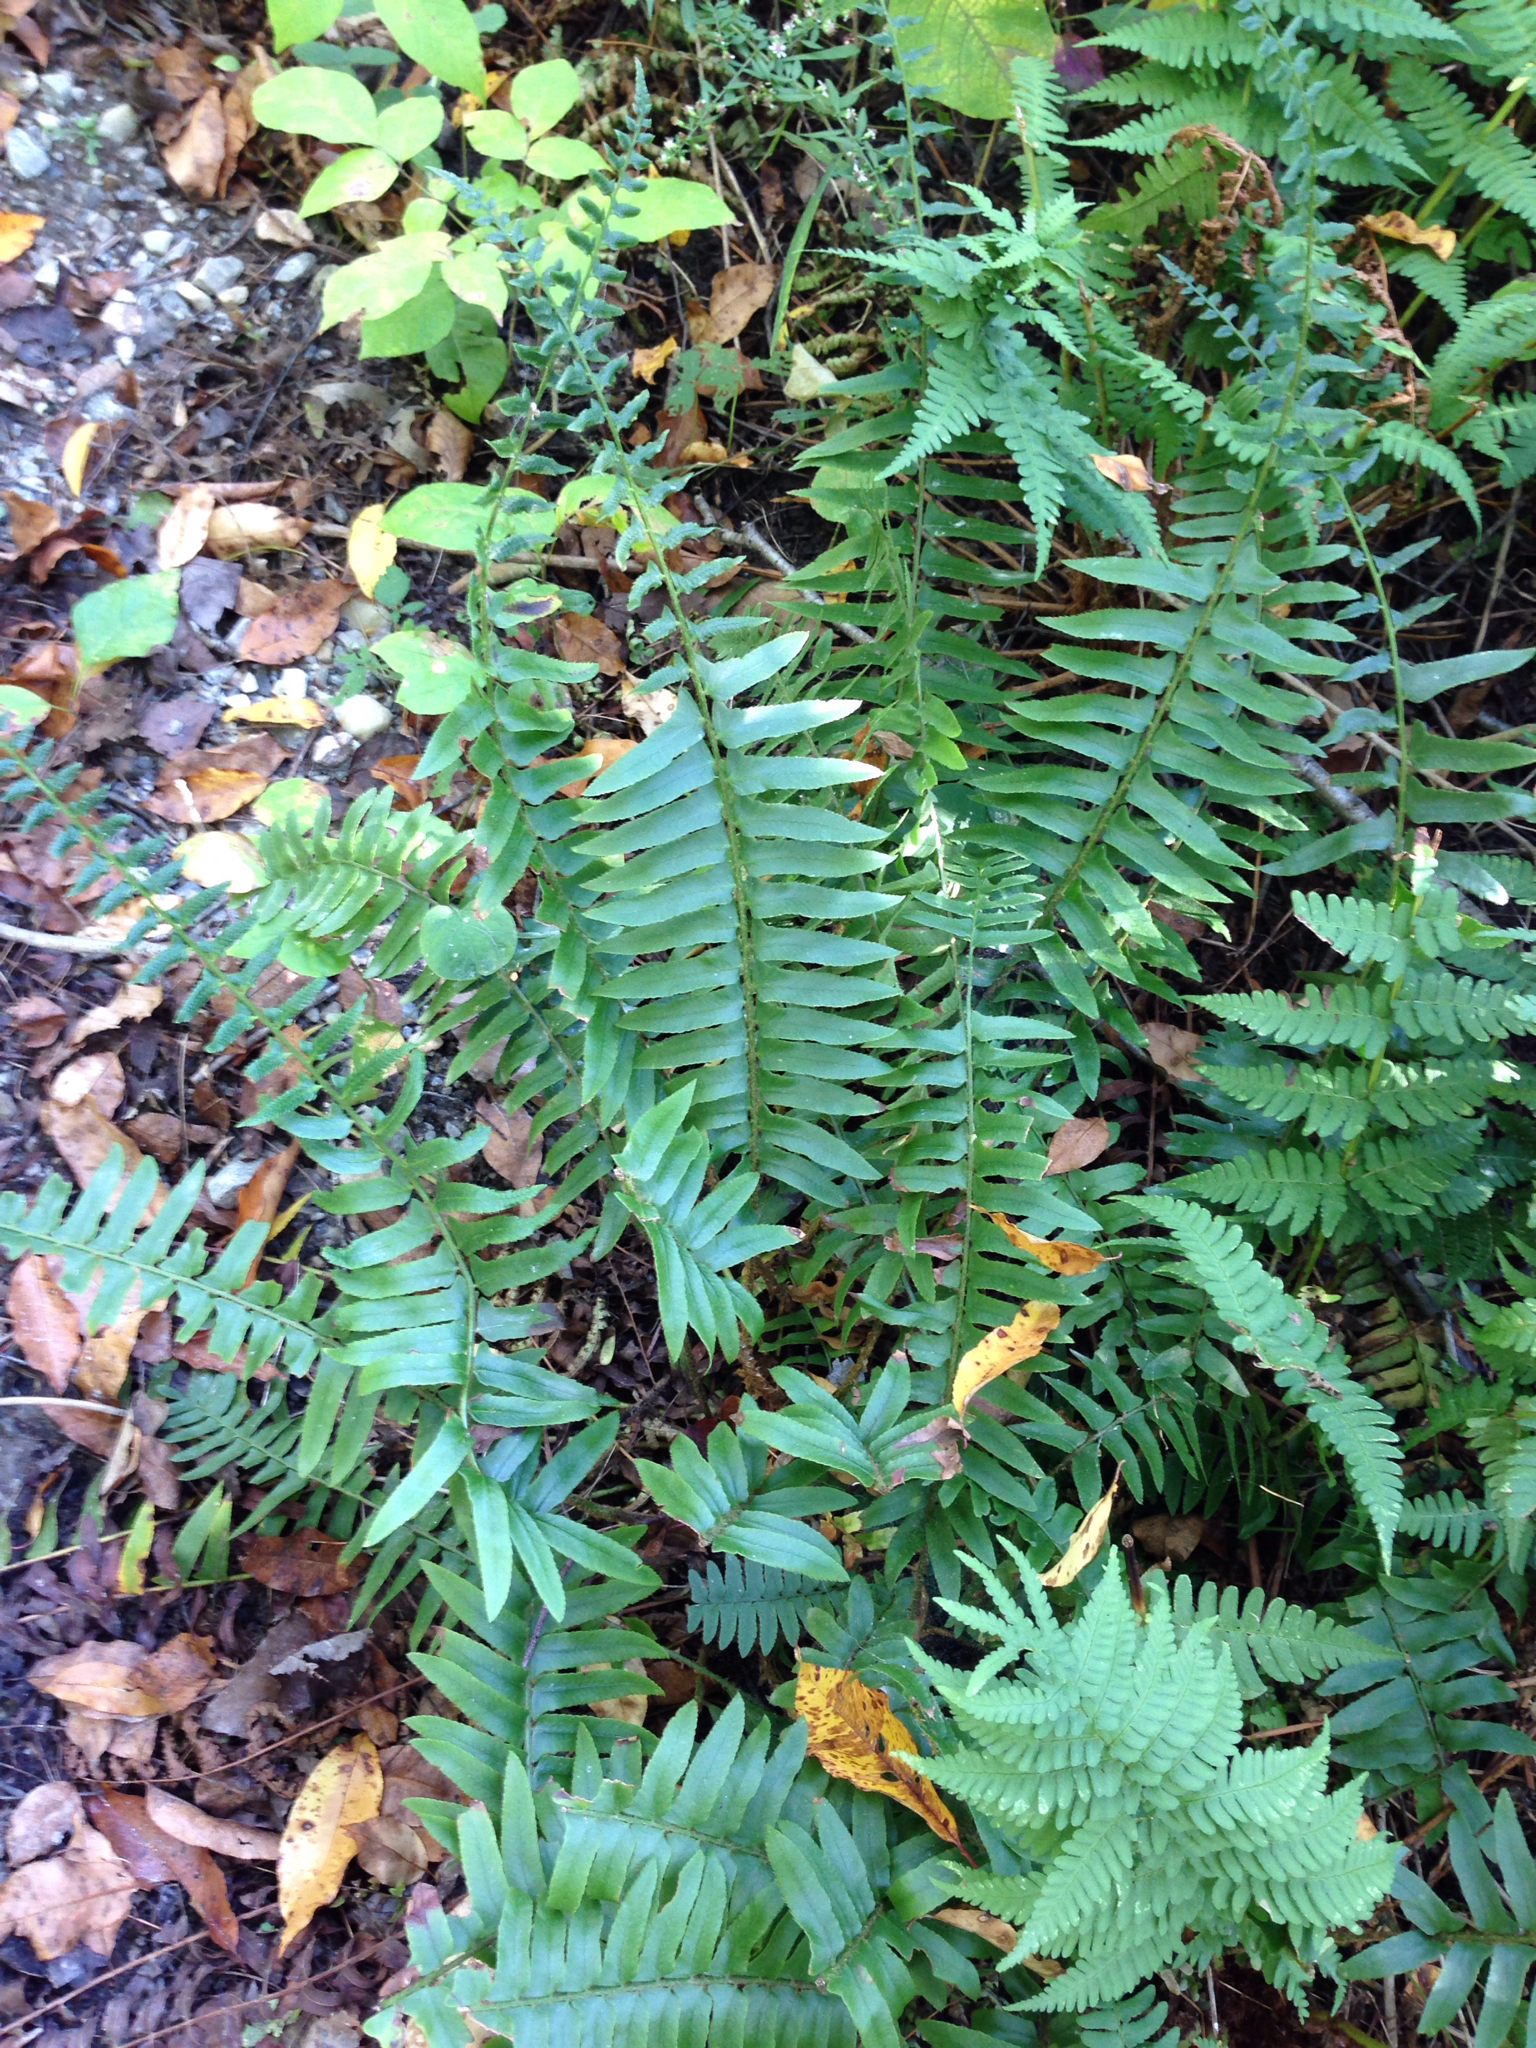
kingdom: Plantae
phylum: Tracheophyta
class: Polypodiopsida
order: Polypodiales
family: Dryopteridaceae
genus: Polystichum
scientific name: Polystichum acrostichoides
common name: Christmas fern
